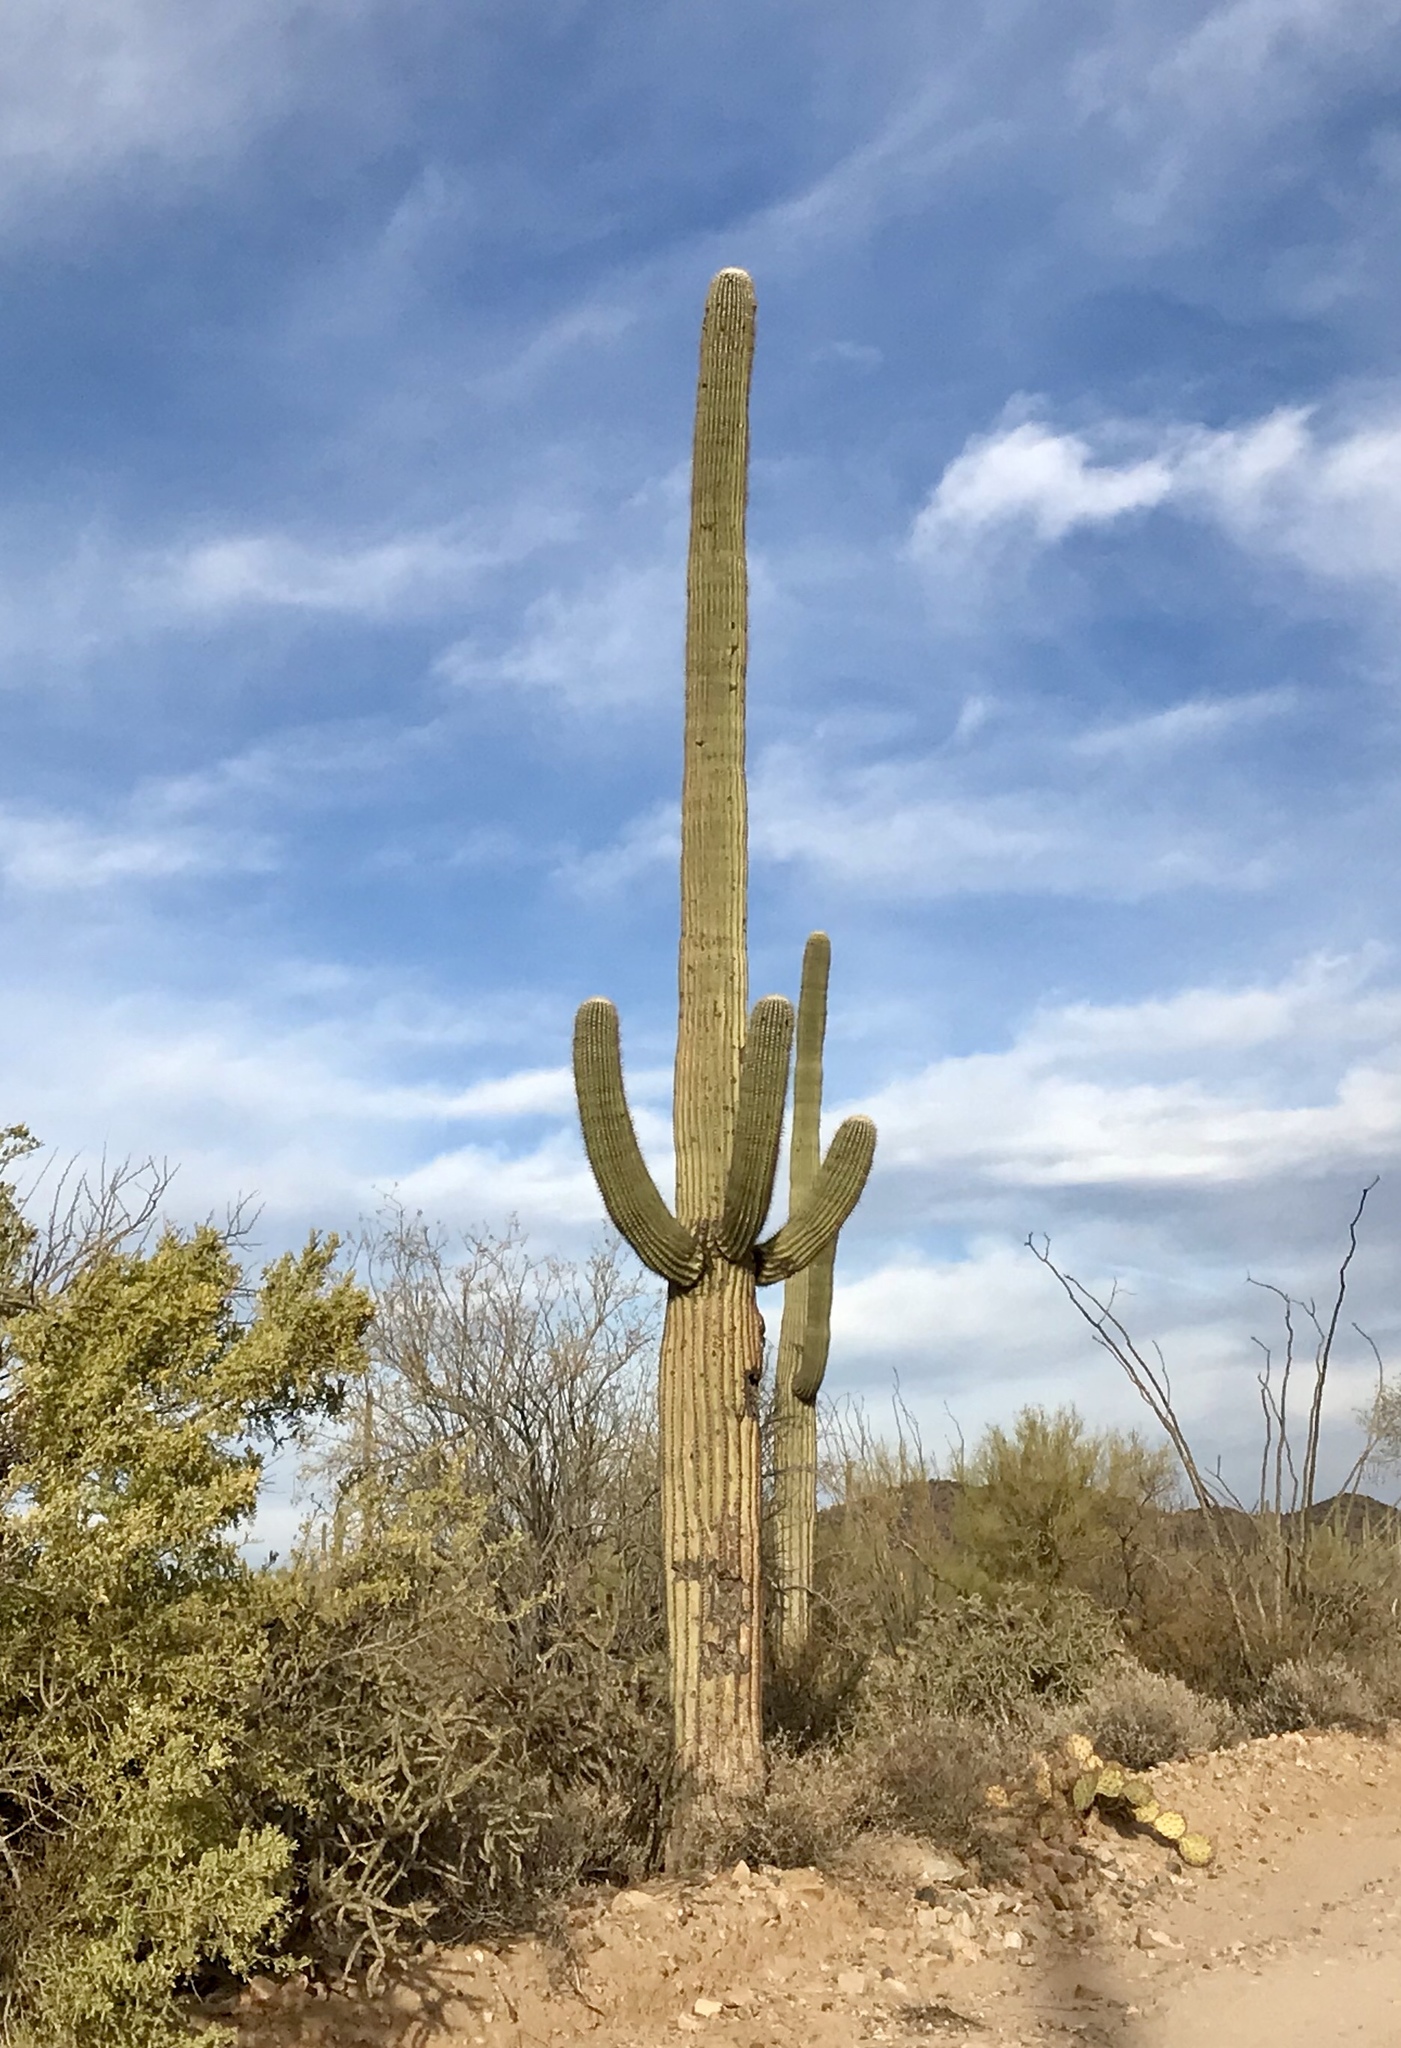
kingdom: Plantae
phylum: Tracheophyta
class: Magnoliopsida
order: Caryophyllales
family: Cactaceae
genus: Carnegiea
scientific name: Carnegiea gigantea
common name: Saguaro
